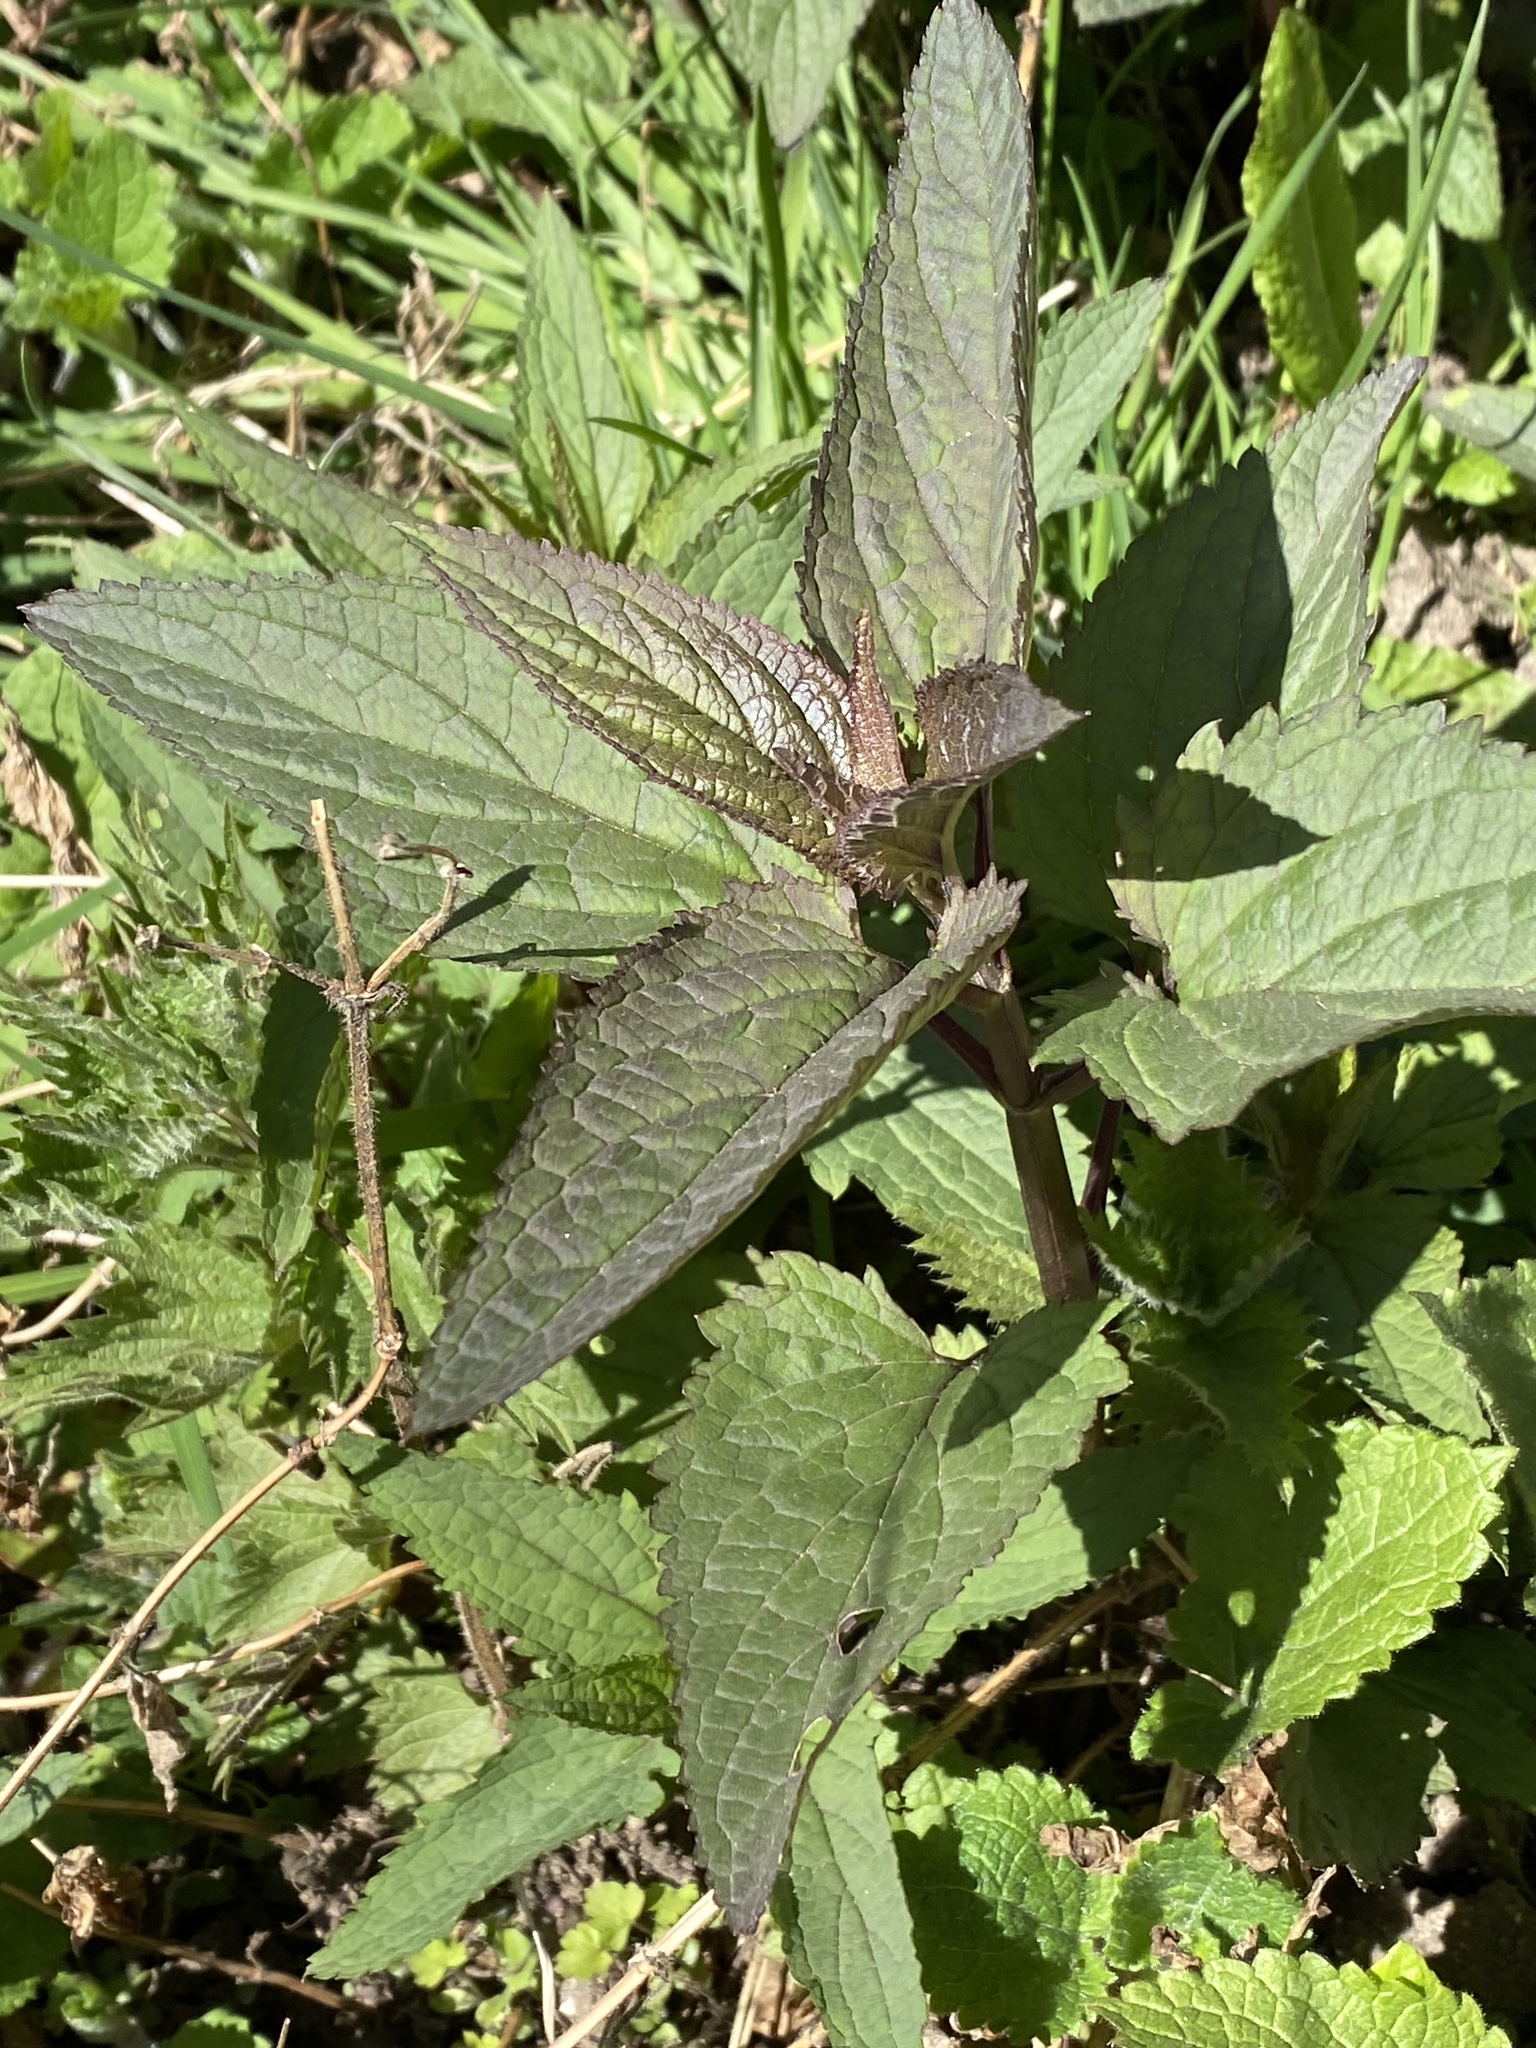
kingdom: Plantae
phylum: Tracheophyta
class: Magnoliopsida
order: Lamiales
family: Scrophulariaceae
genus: Scrophularia
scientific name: Scrophularia nodosa
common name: Common figwort
